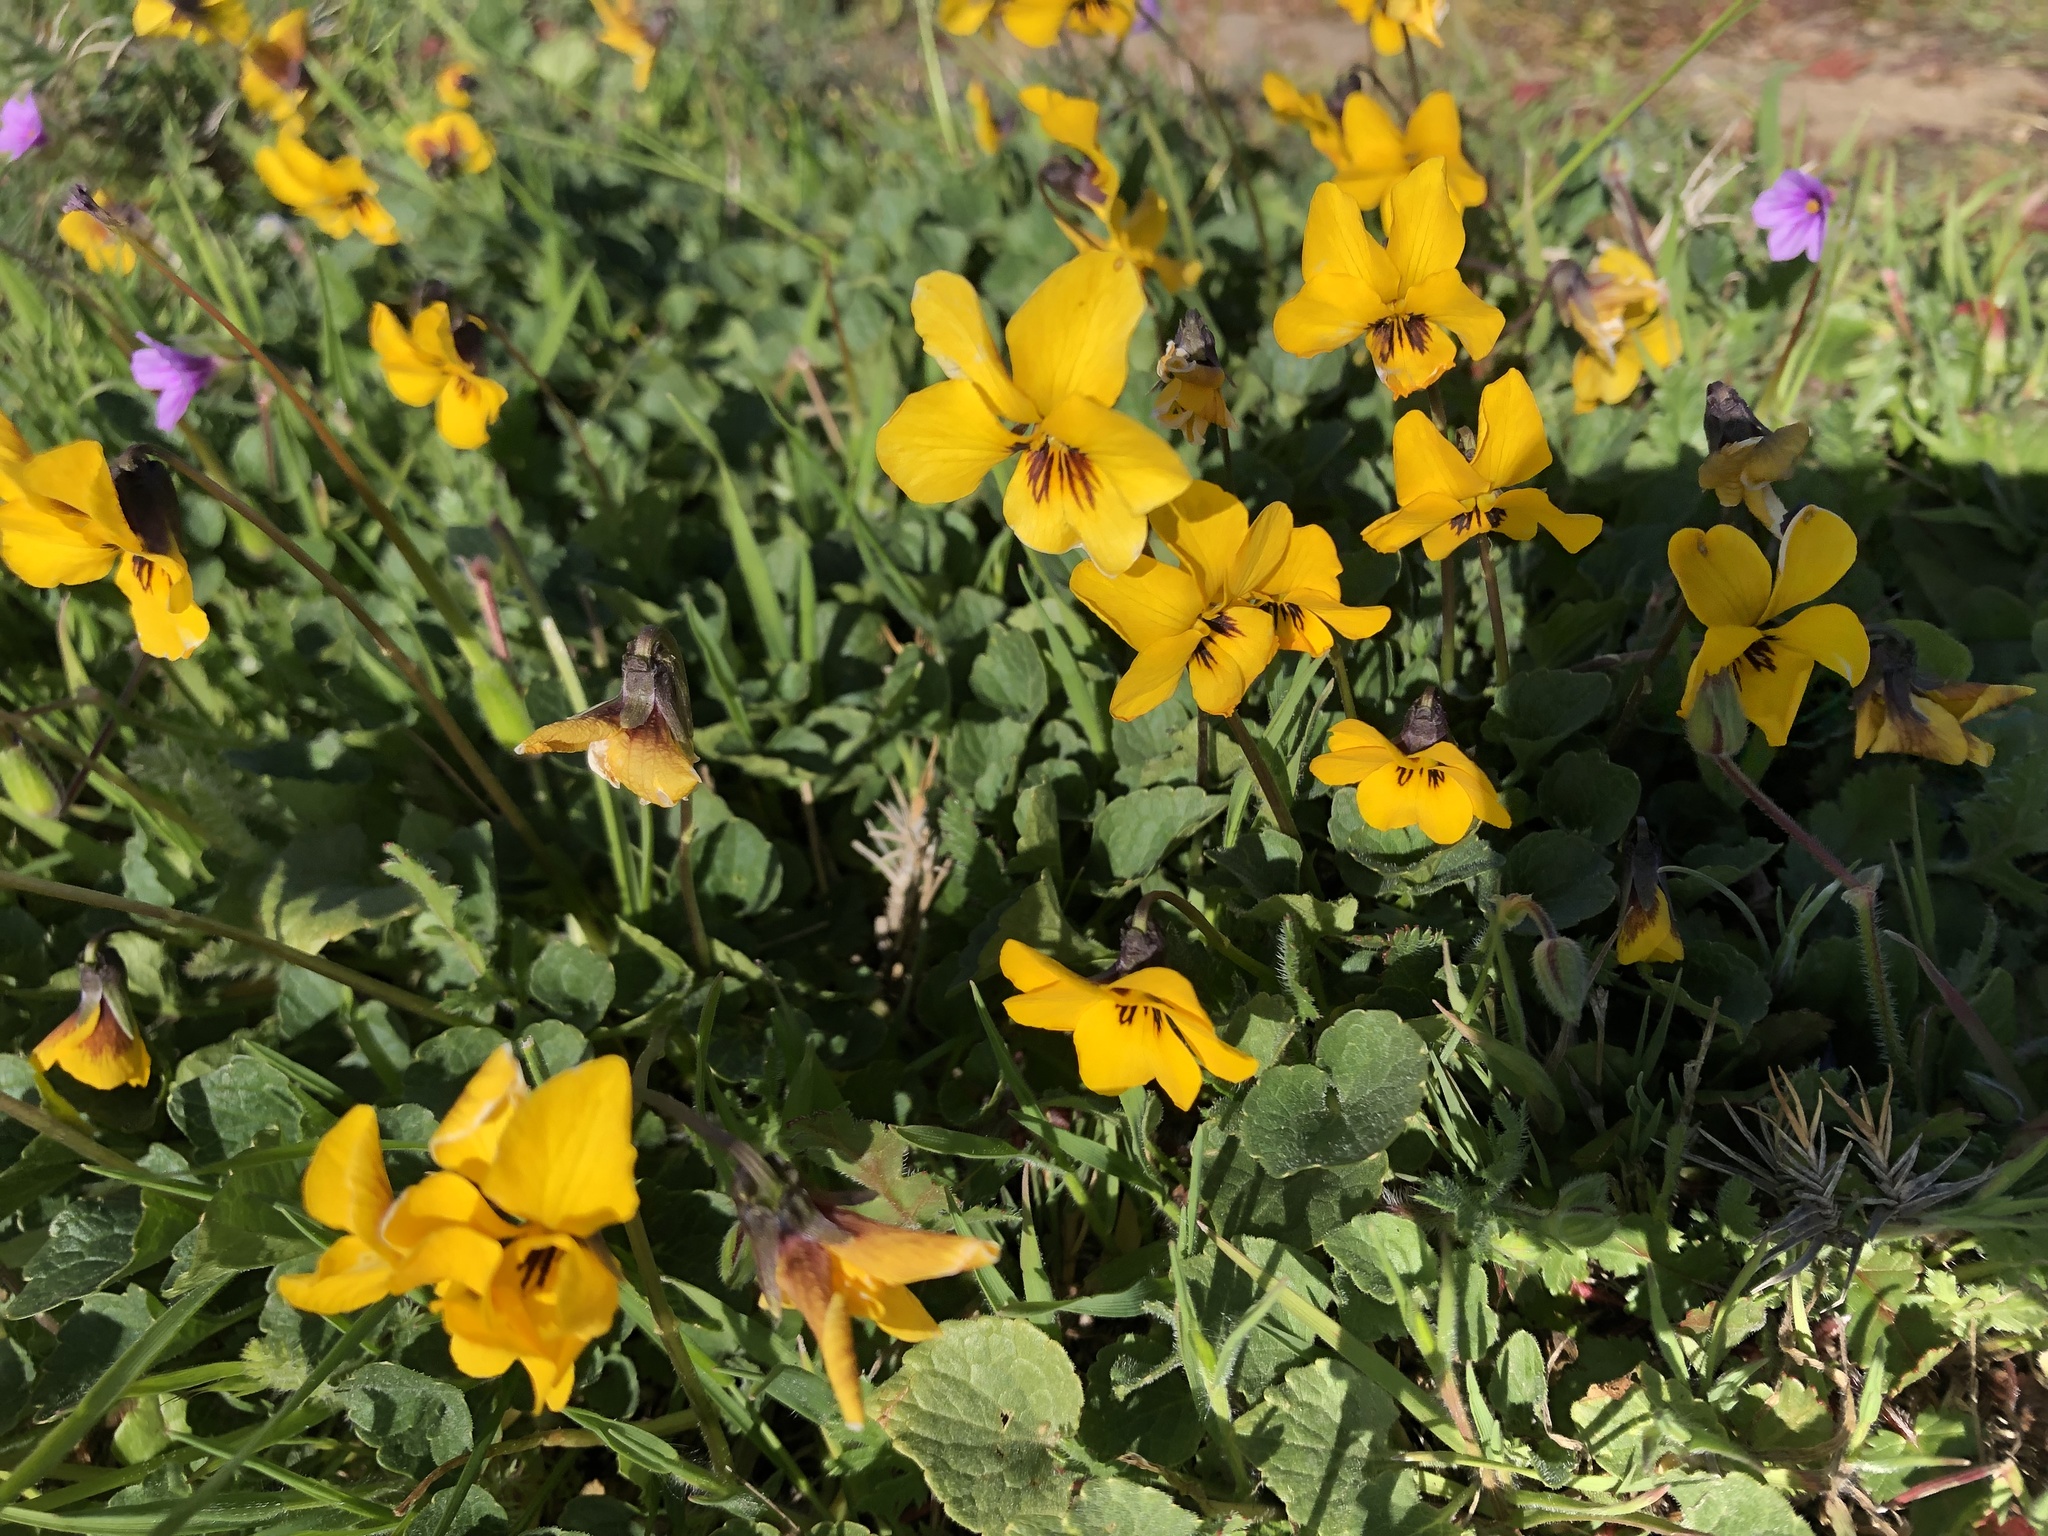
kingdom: Plantae
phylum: Tracheophyta
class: Magnoliopsida
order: Malpighiales
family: Violaceae
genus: Viola
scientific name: Viola pedunculata
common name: California golden violet
